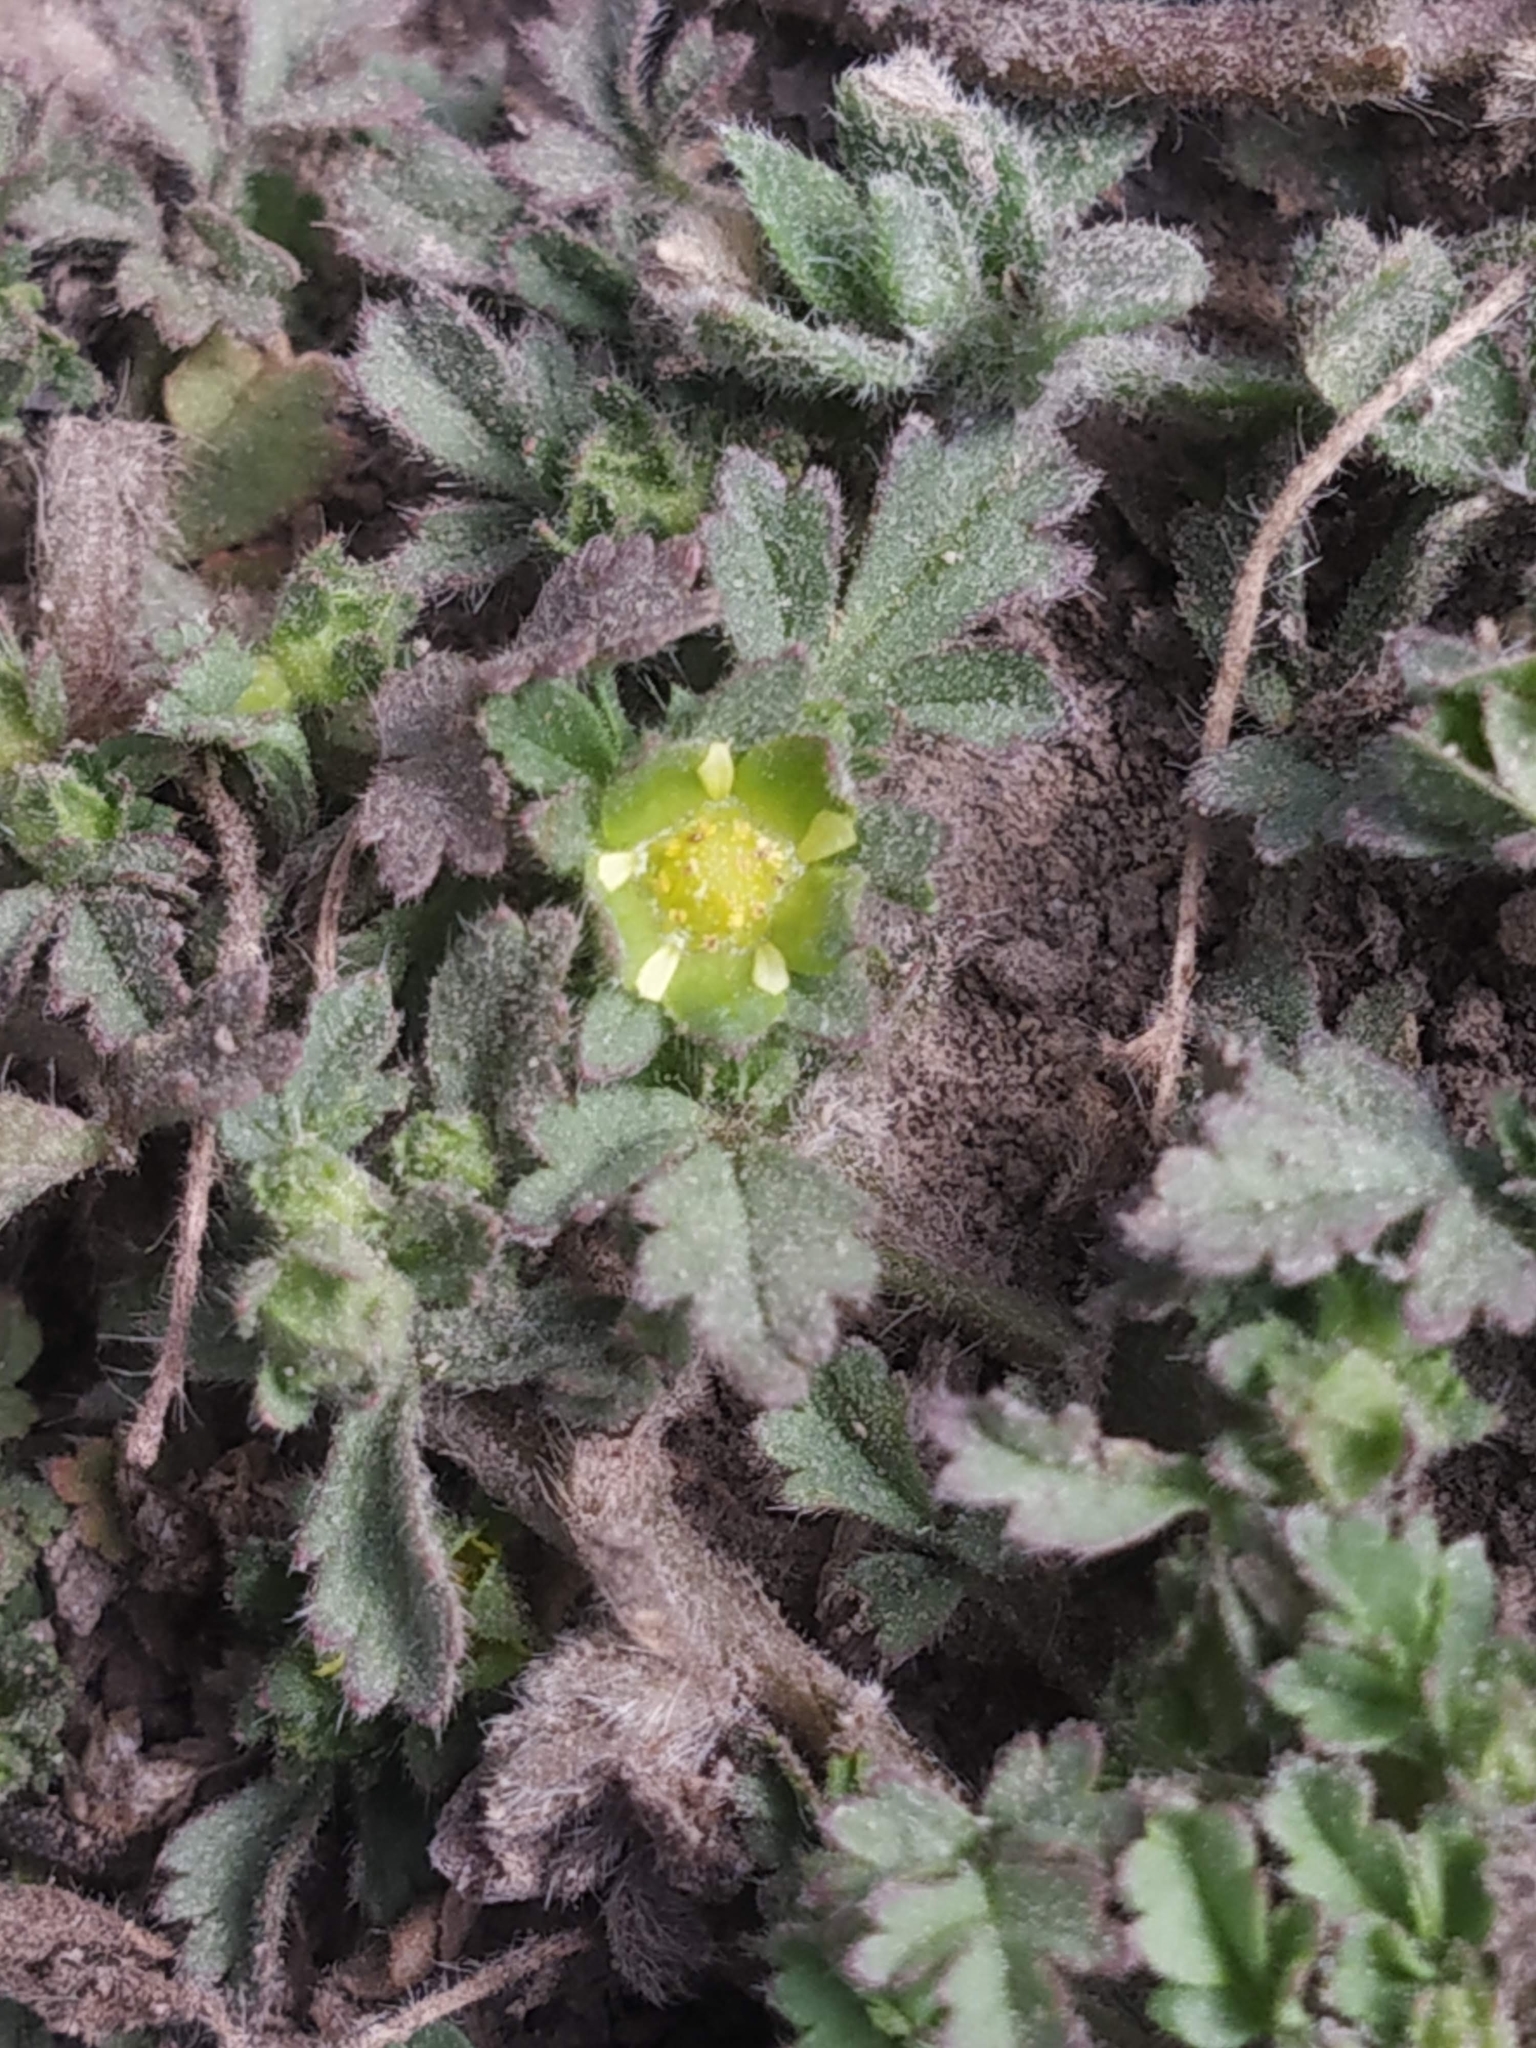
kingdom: Plantae
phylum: Tracheophyta
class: Magnoliopsida
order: Rosales
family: Rosaceae
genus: Potentilla
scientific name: Potentilla supina
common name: Prostrate cinquefoil
